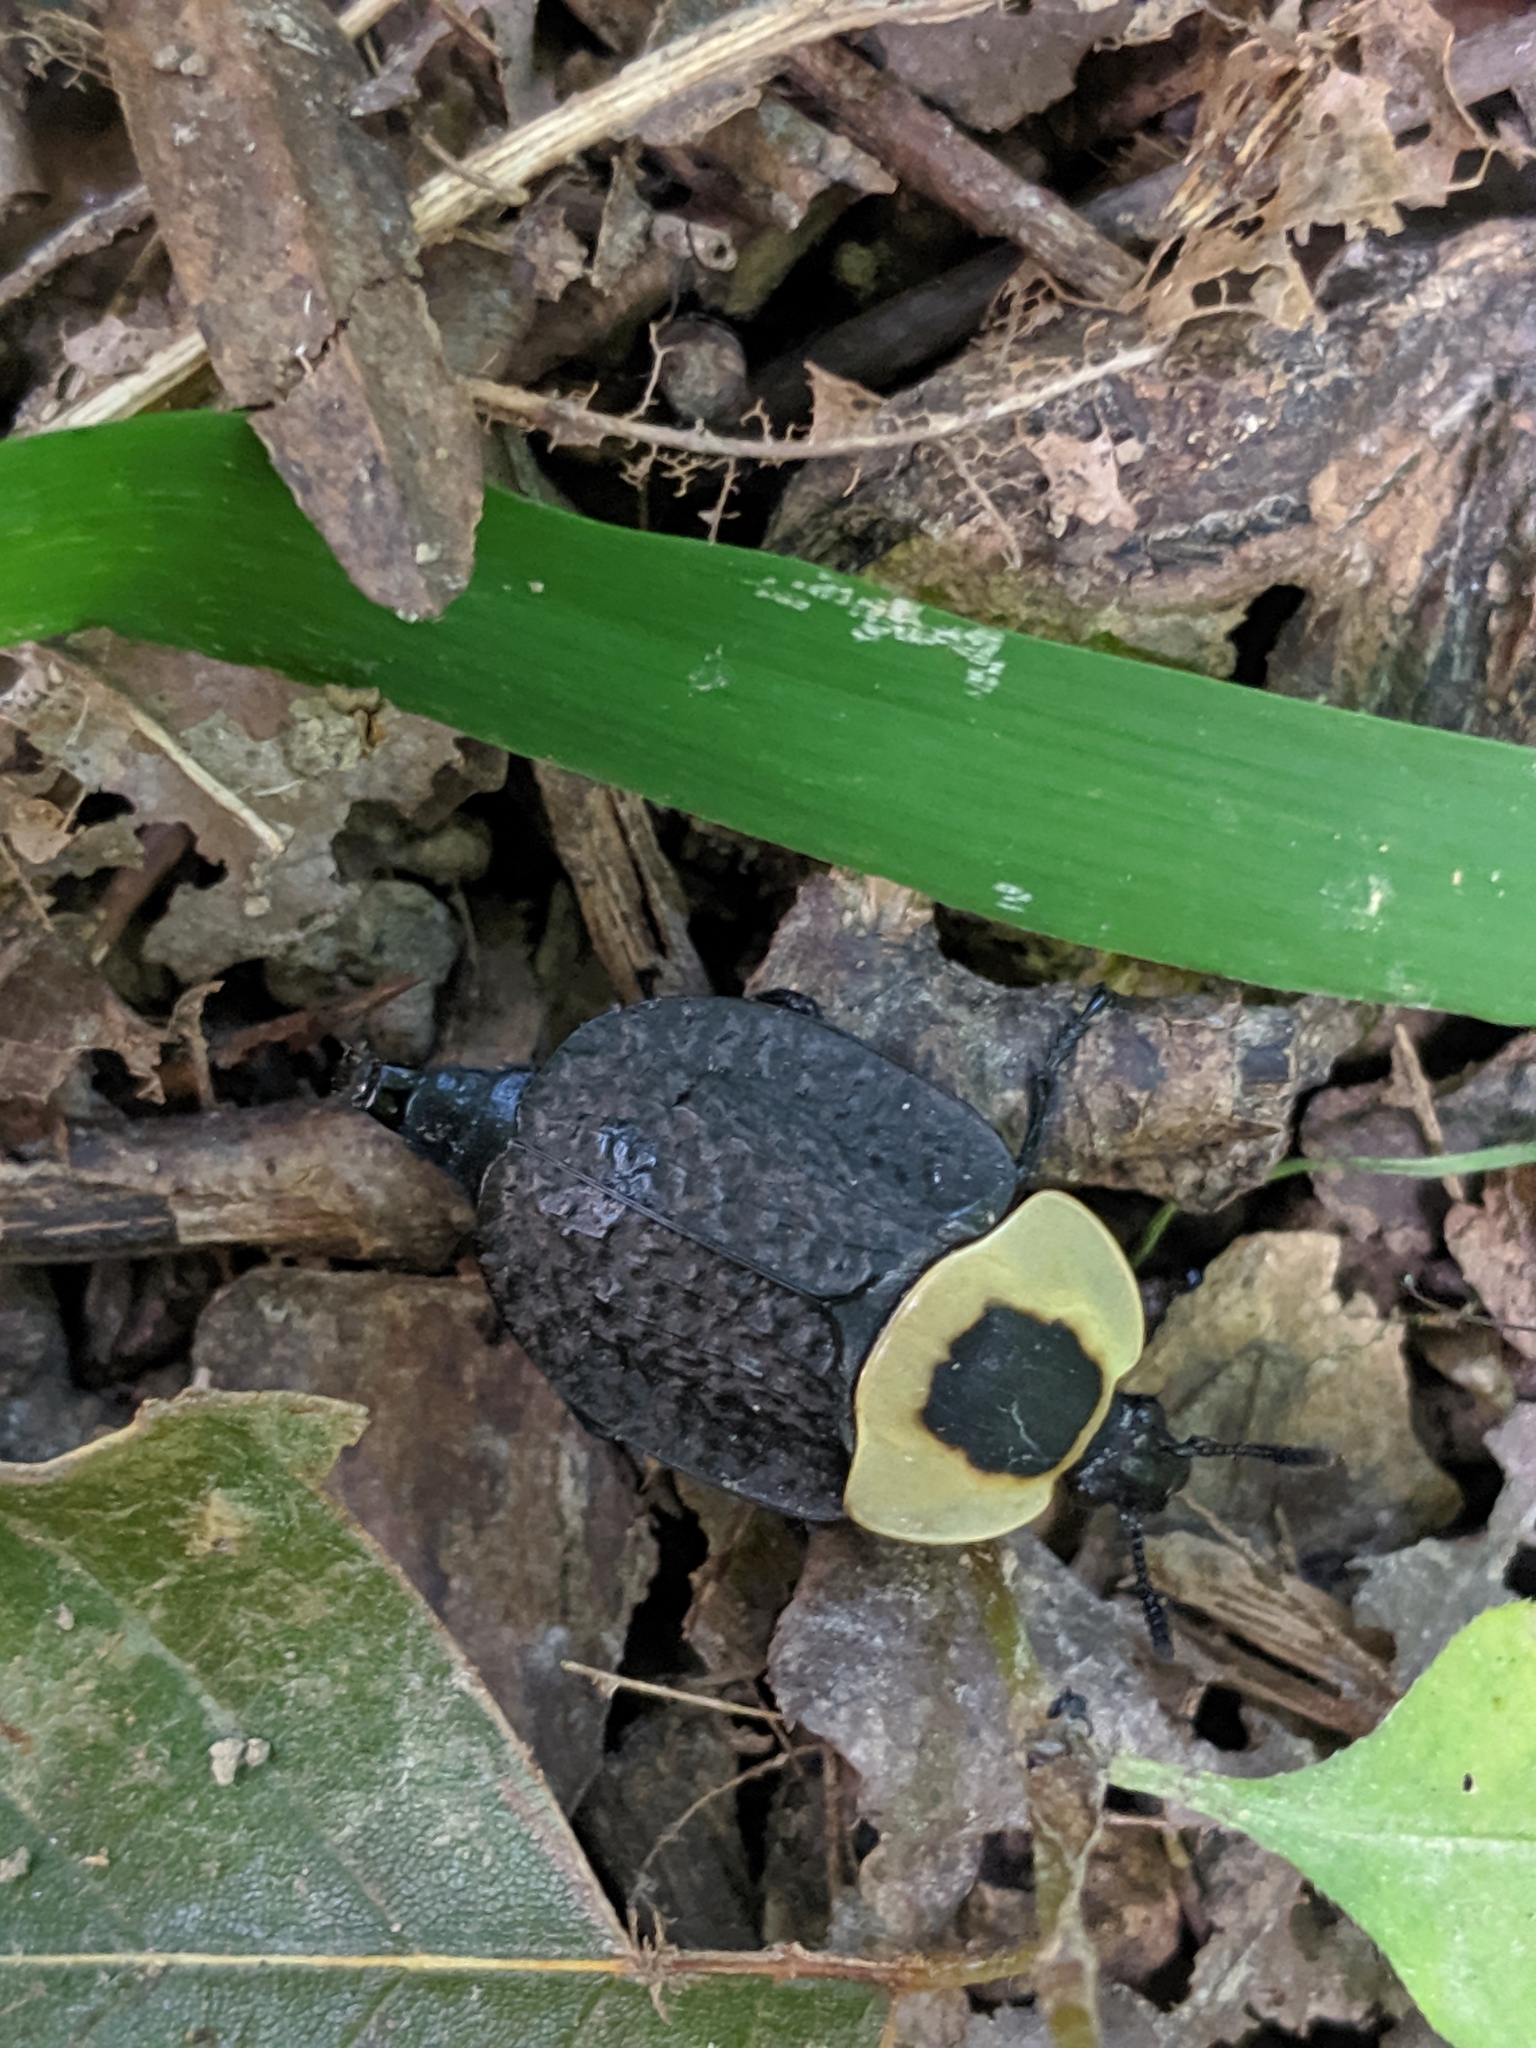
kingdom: Animalia
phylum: Arthropoda
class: Insecta
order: Coleoptera
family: Staphylinidae
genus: Necrophila
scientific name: Necrophila americana
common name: American carrion beetle
